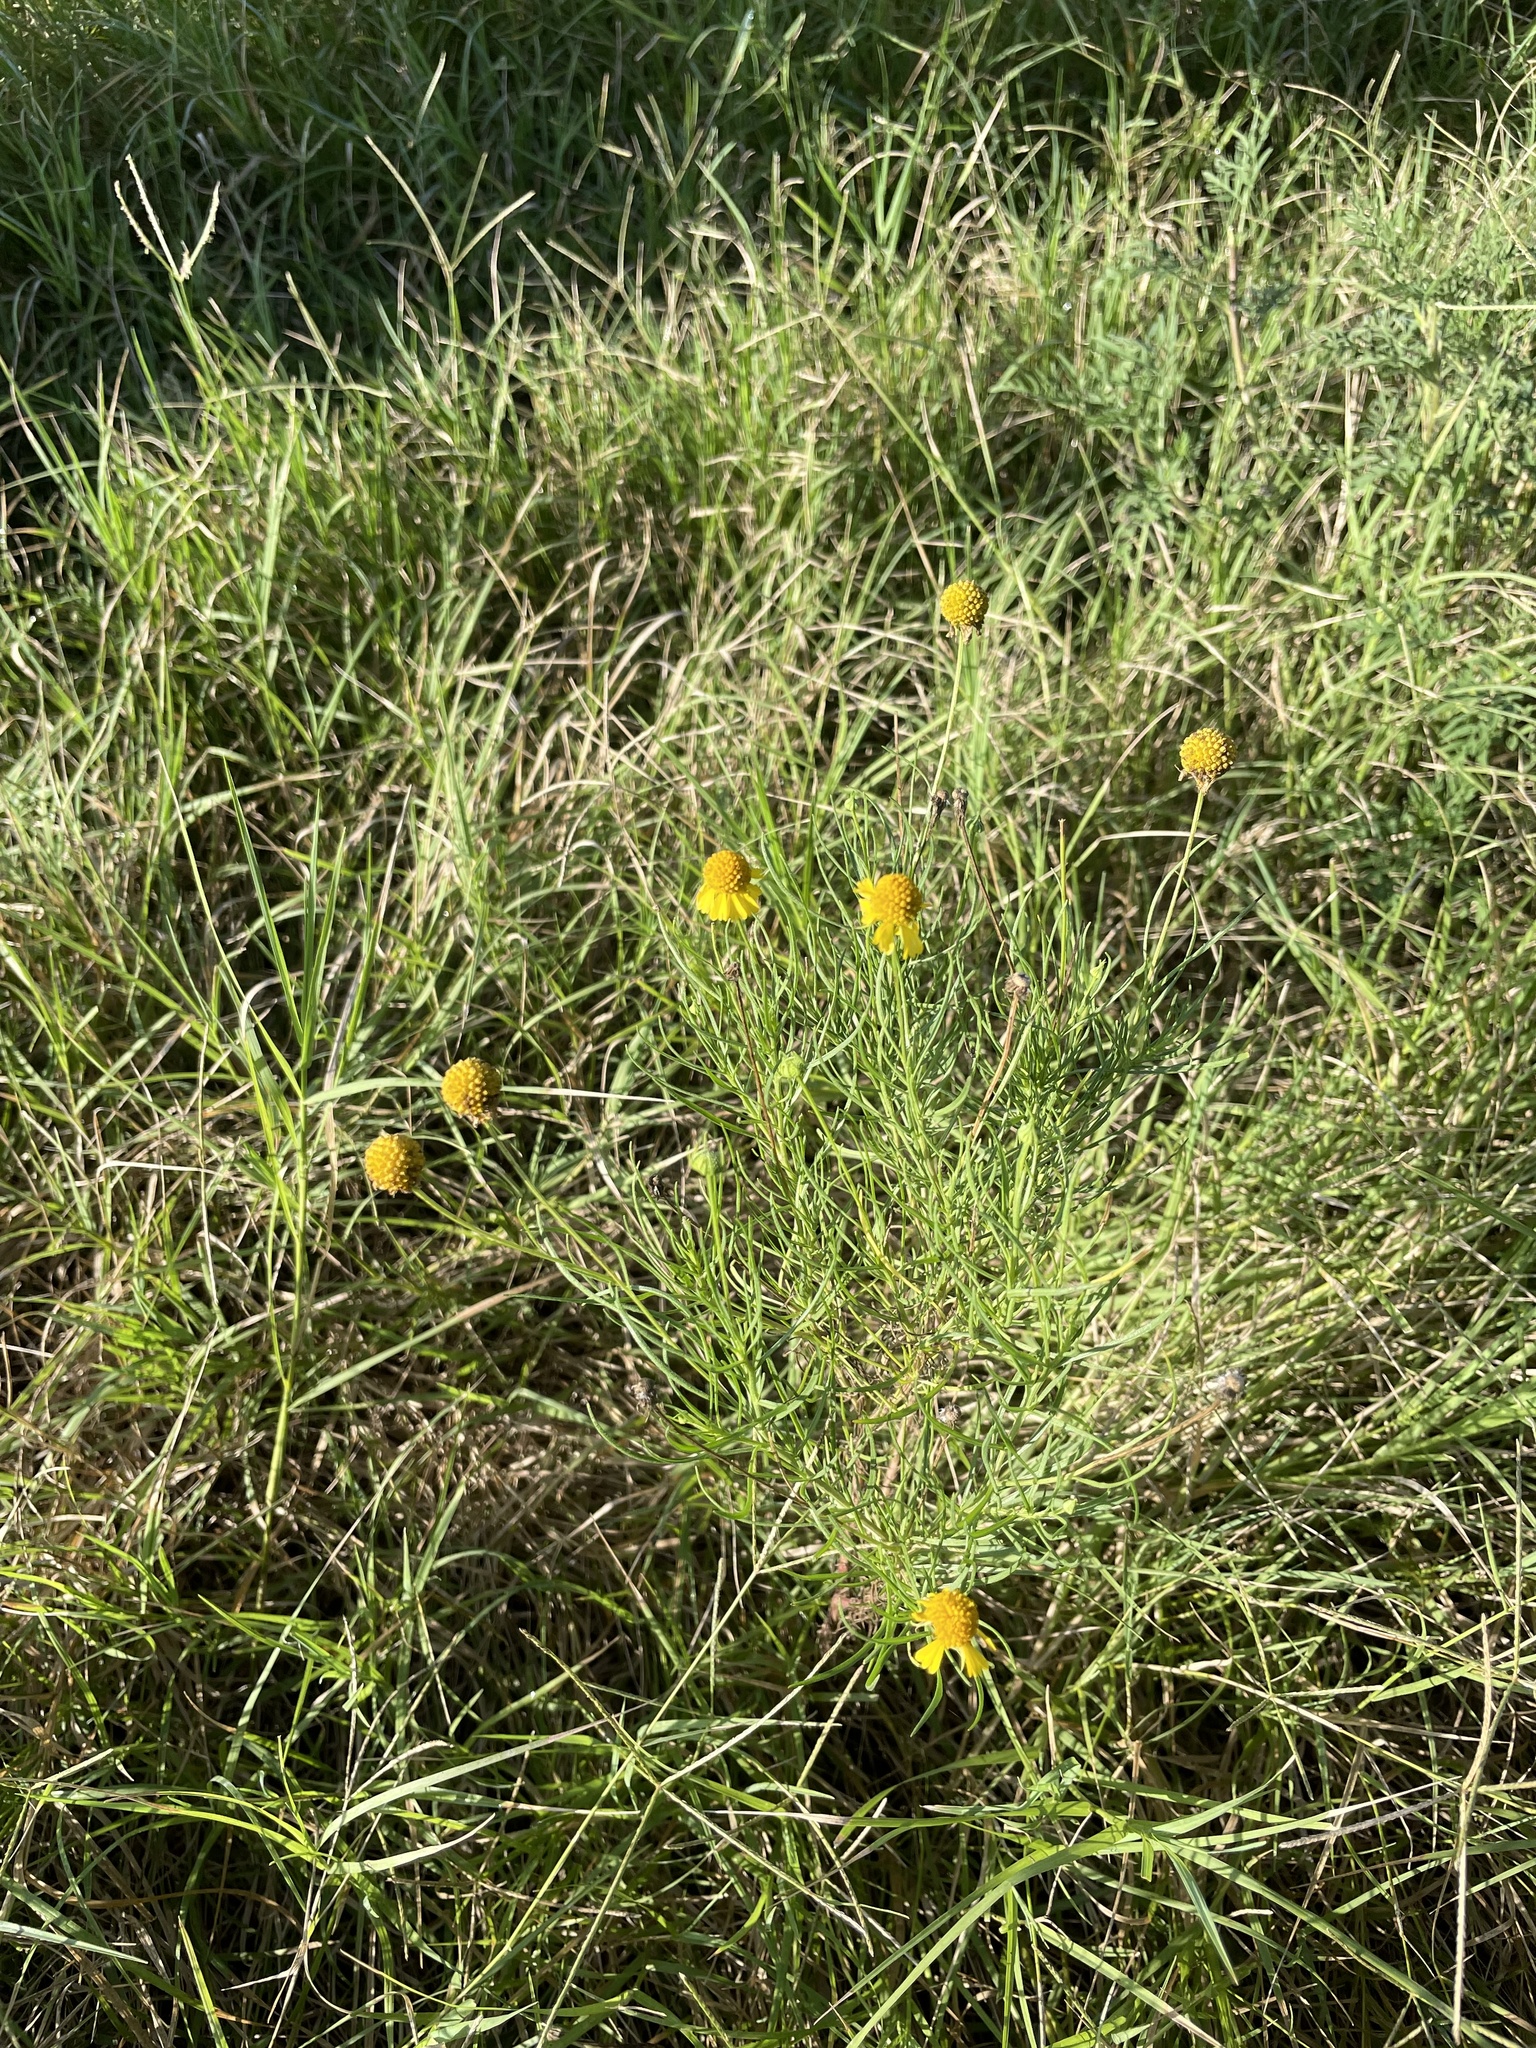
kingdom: Plantae
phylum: Tracheophyta
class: Magnoliopsida
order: Asterales
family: Asteraceae
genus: Helenium
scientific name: Helenium amarum
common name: Bitter sneezeweed
